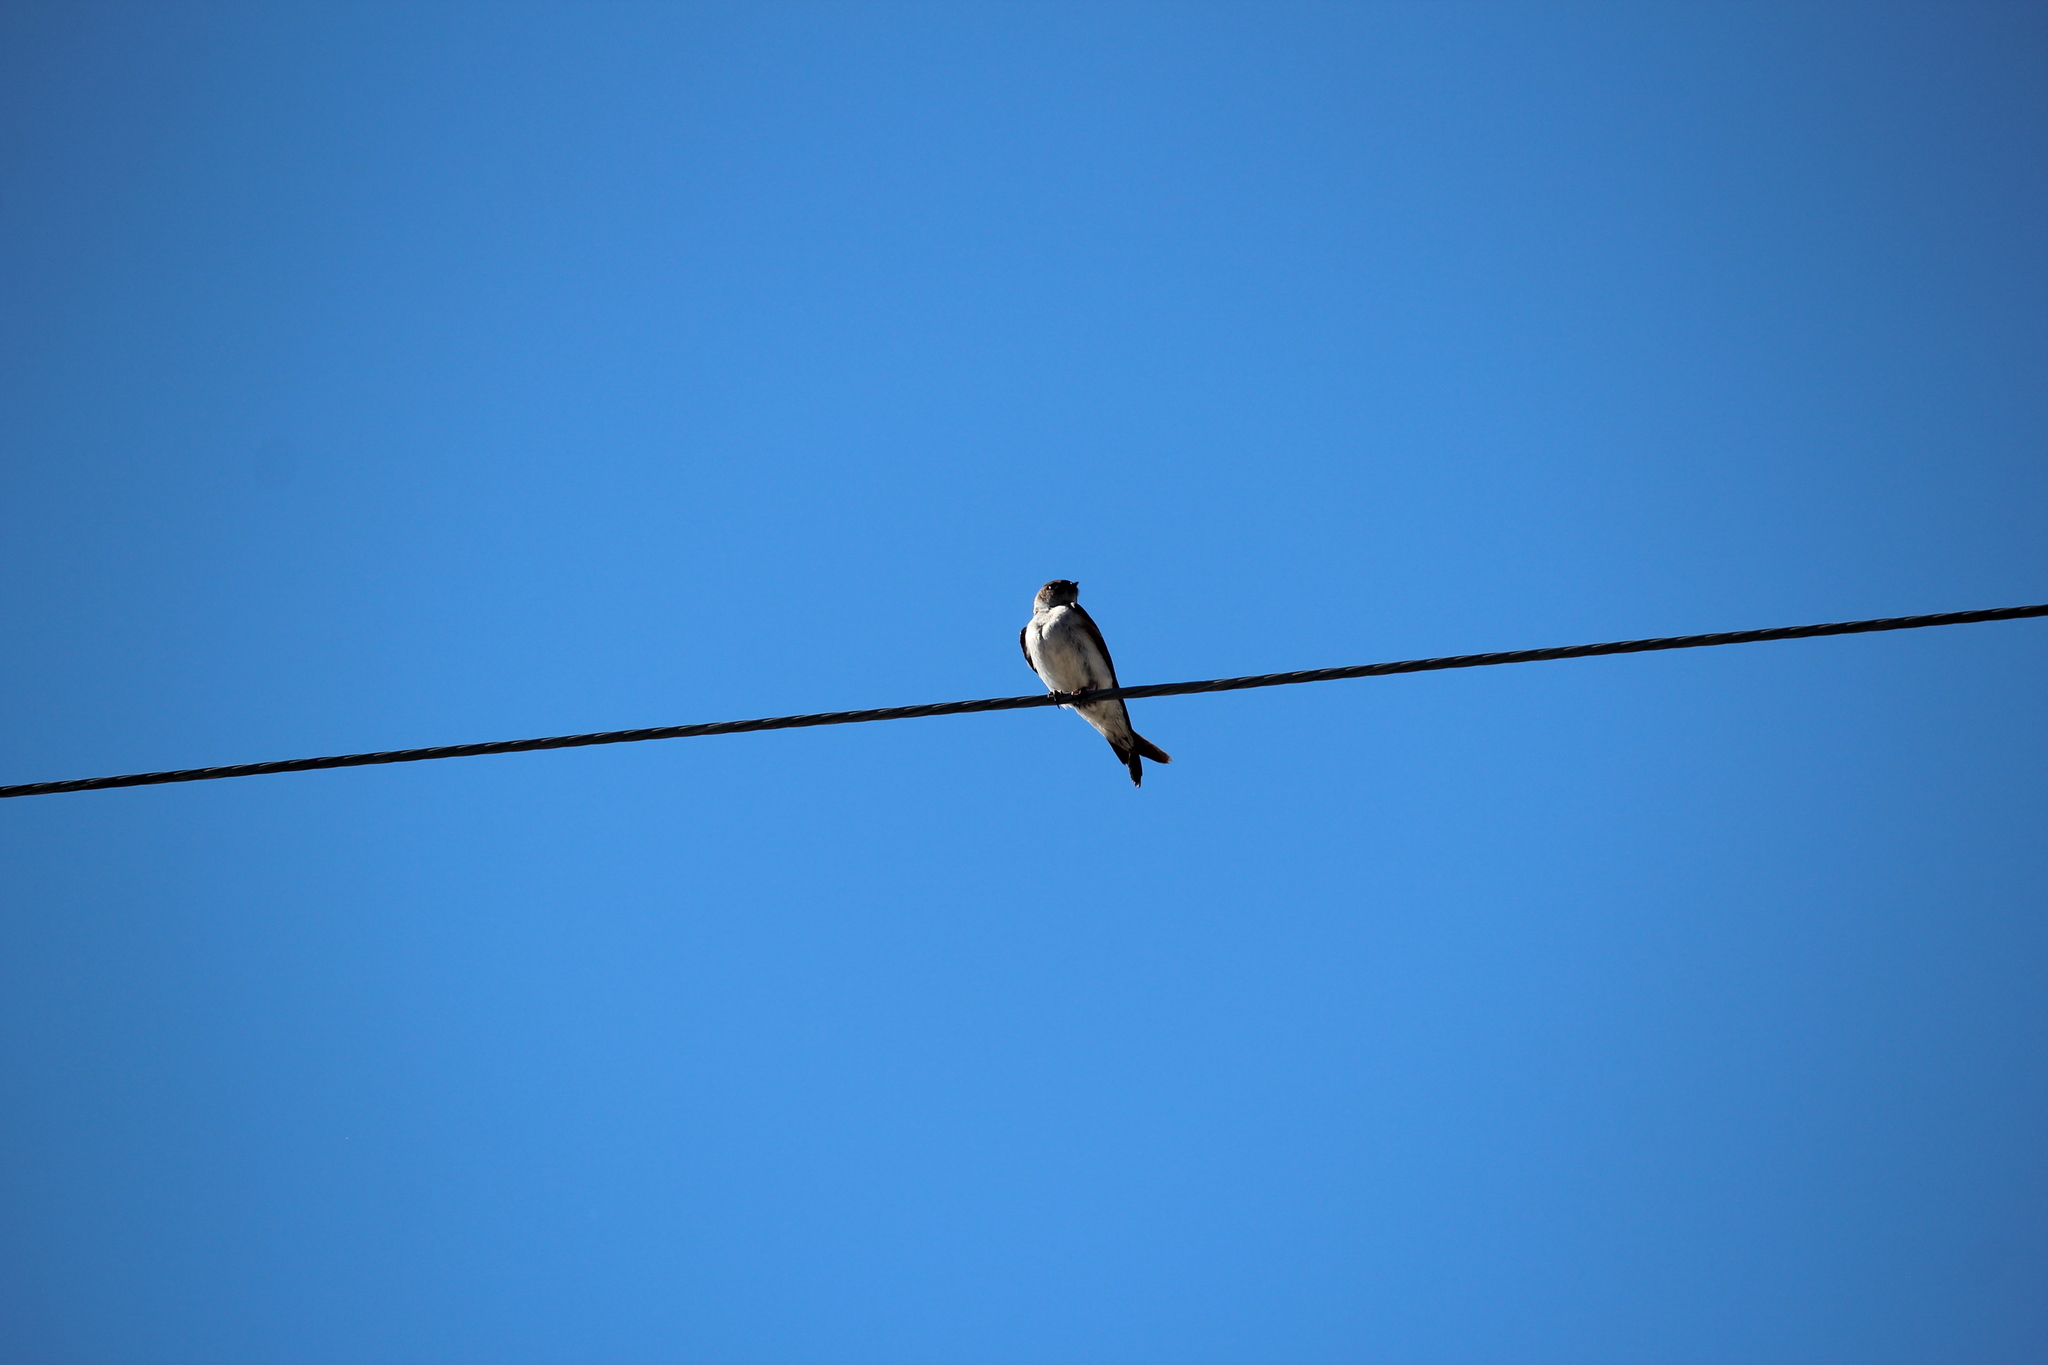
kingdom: Animalia
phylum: Chordata
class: Aves
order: Passeriformes
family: Hirundinidae
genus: Tachycineta
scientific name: Tachycineta thalassina
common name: Violet-green swallow
